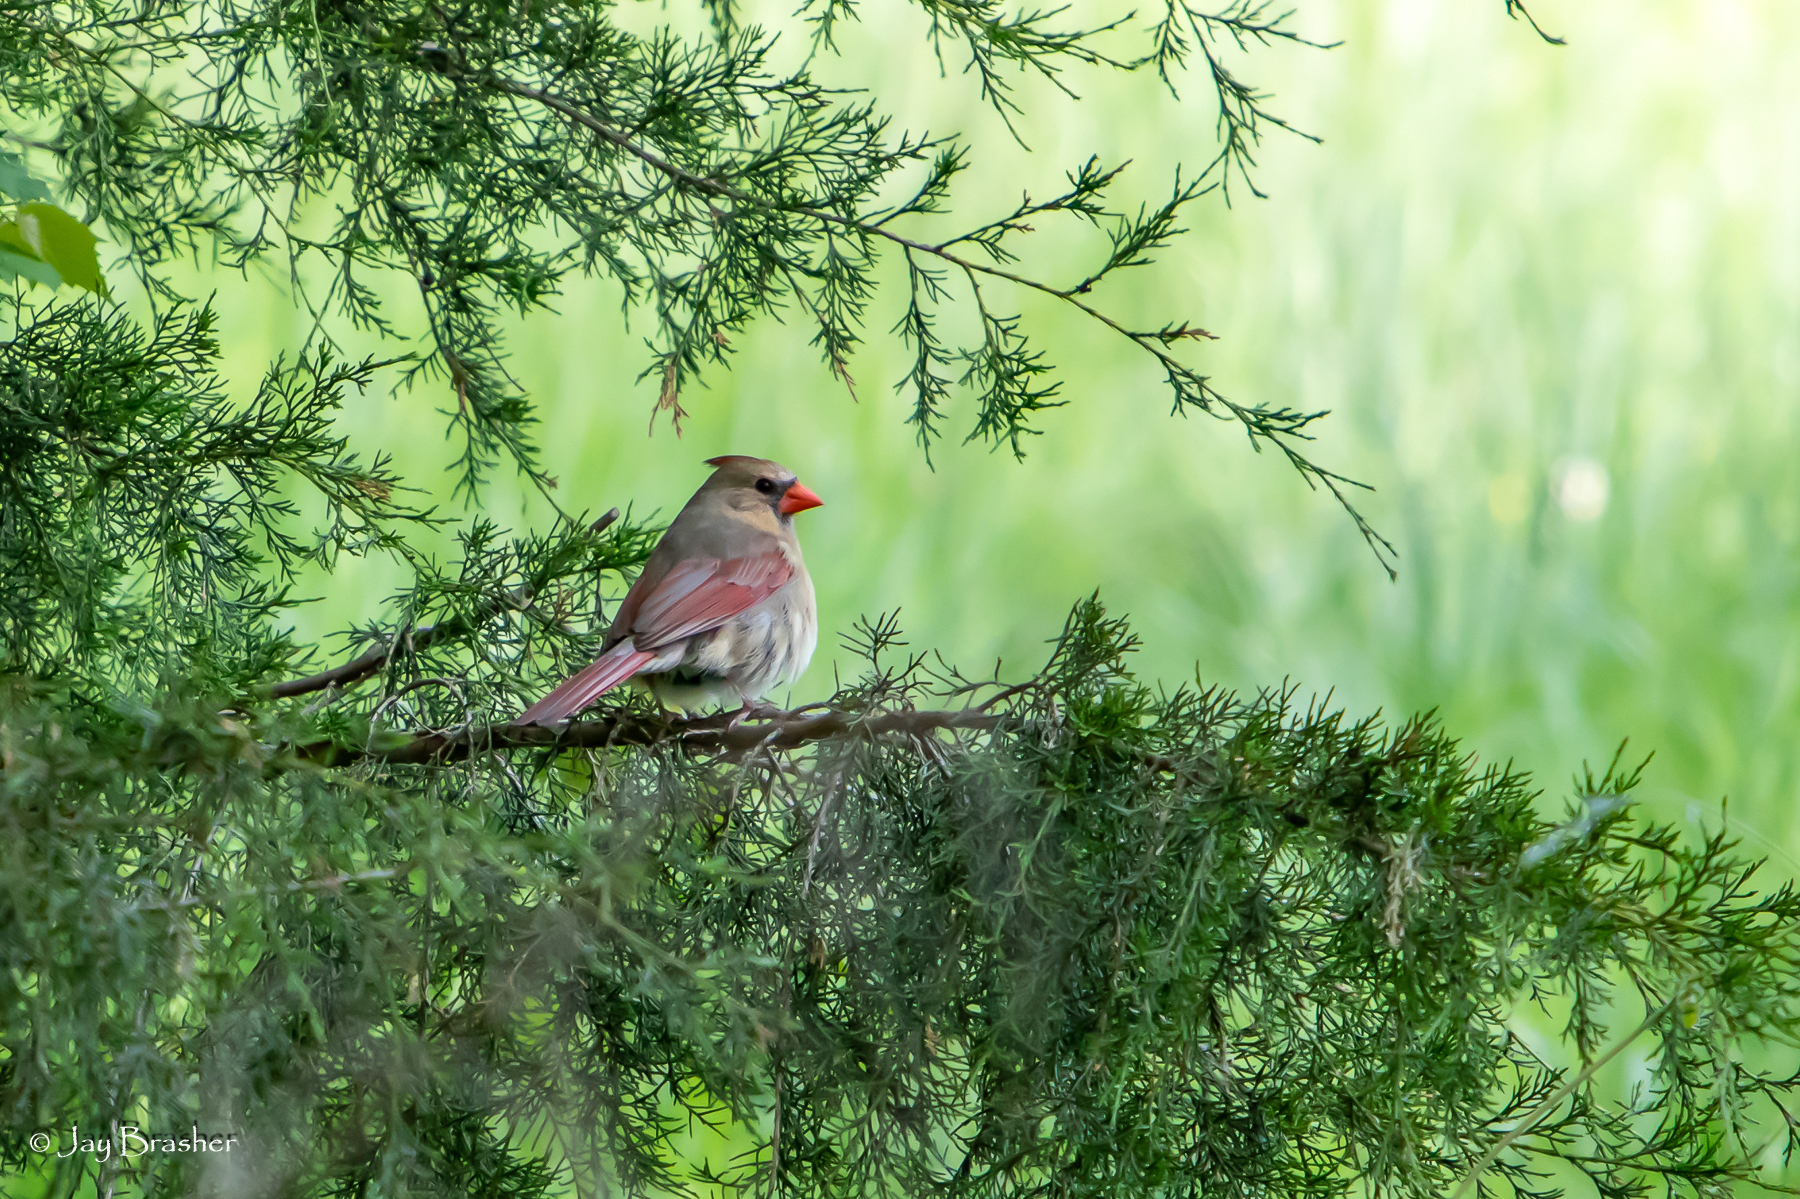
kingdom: Animalia
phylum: Chordata
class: Aves
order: Passeriformes
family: Cardinalidae
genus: Cardinalis
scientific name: Cardinalis cardinalis
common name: Northern cardinal
